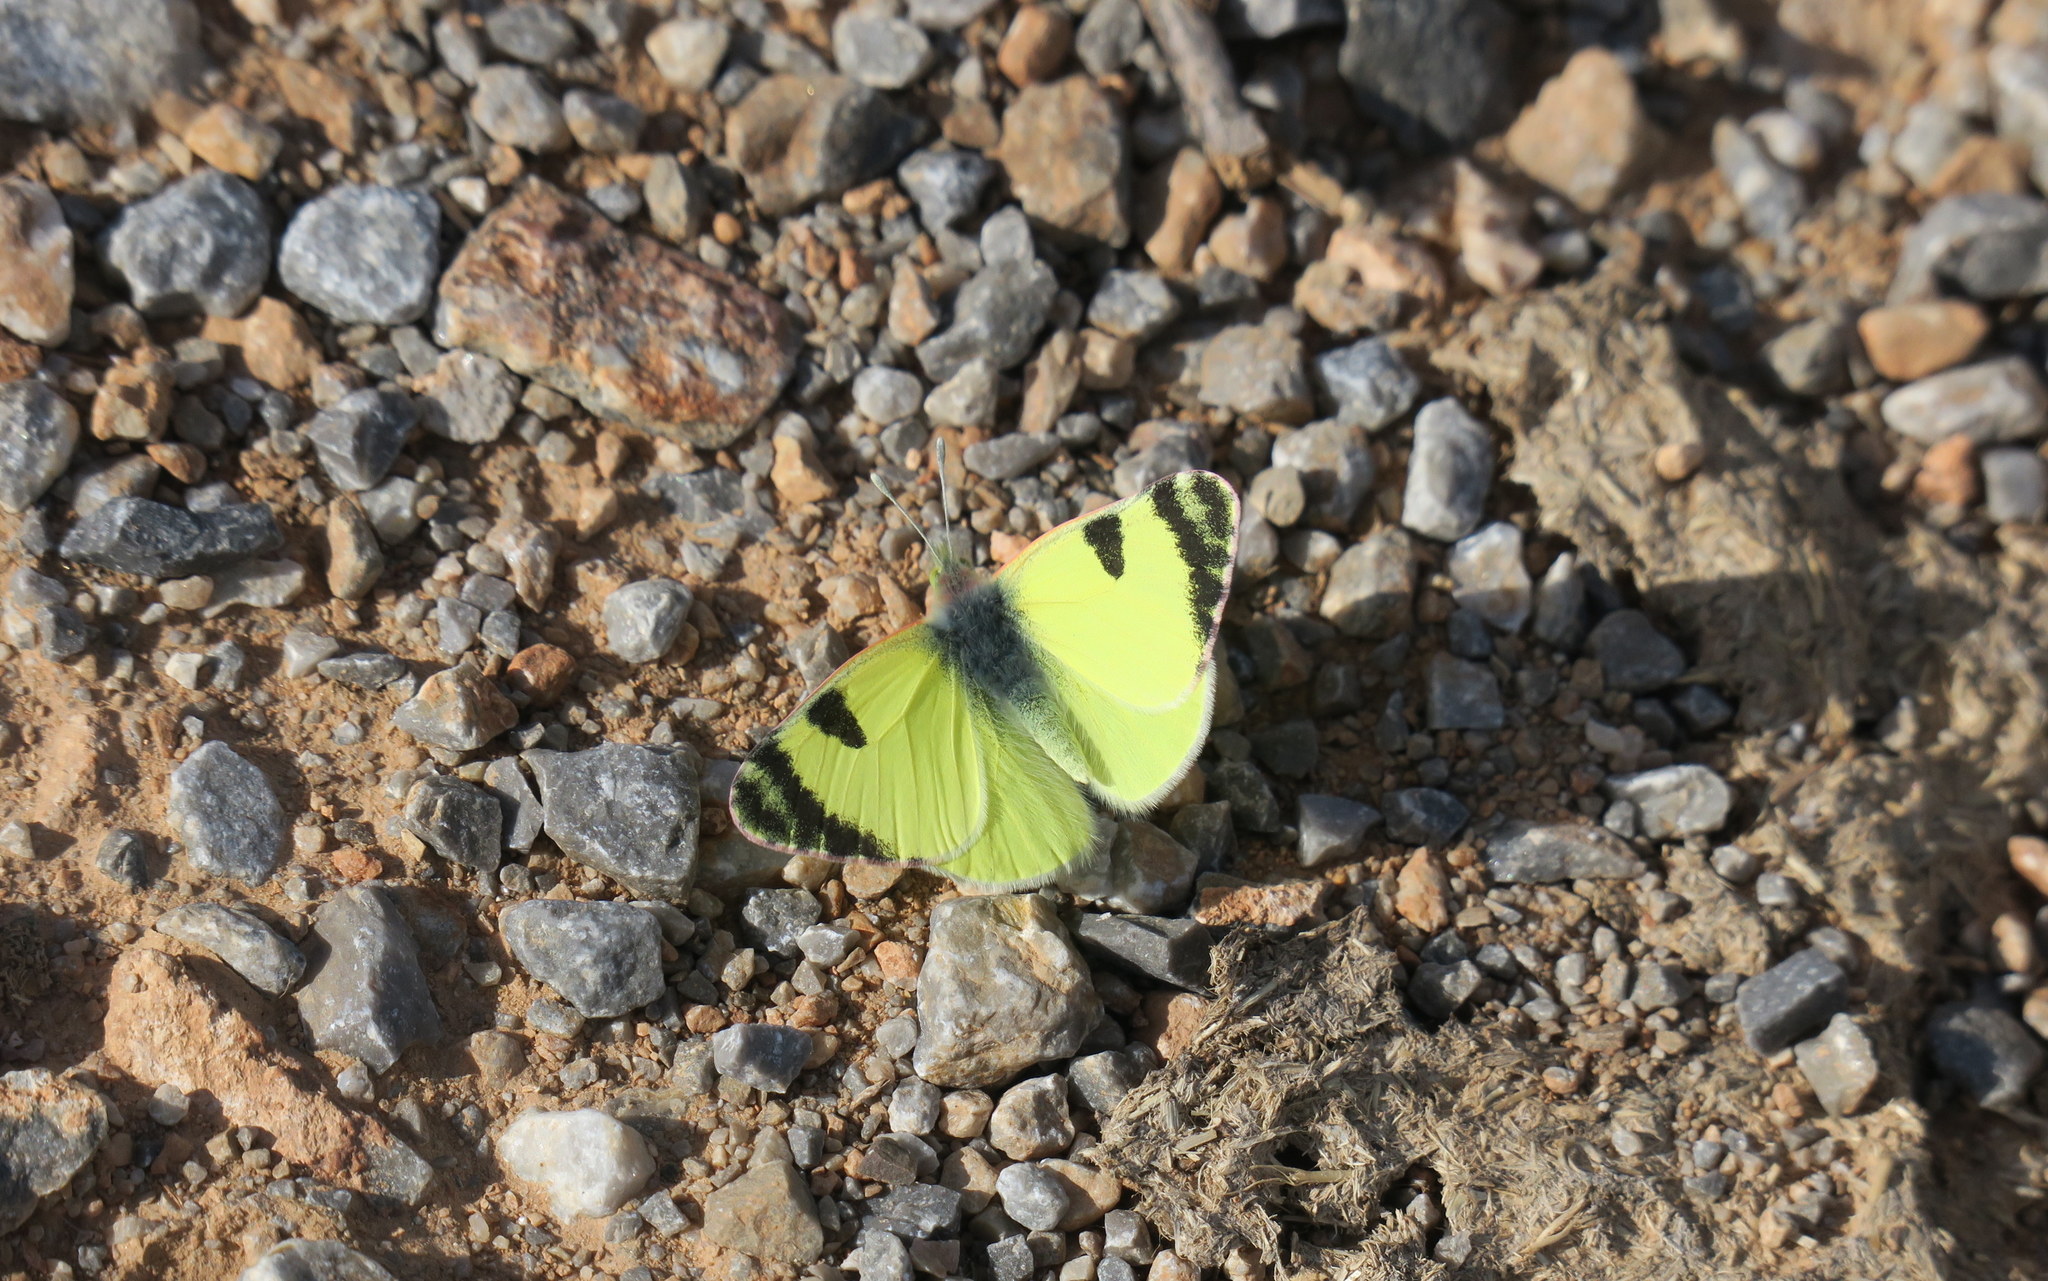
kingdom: Animalia
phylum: Arthropoda
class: Insecta
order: Lepidoptera
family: Pieridae
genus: Elphinstonia
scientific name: Elphinstonia penia
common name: Eastern greenish black-tip
